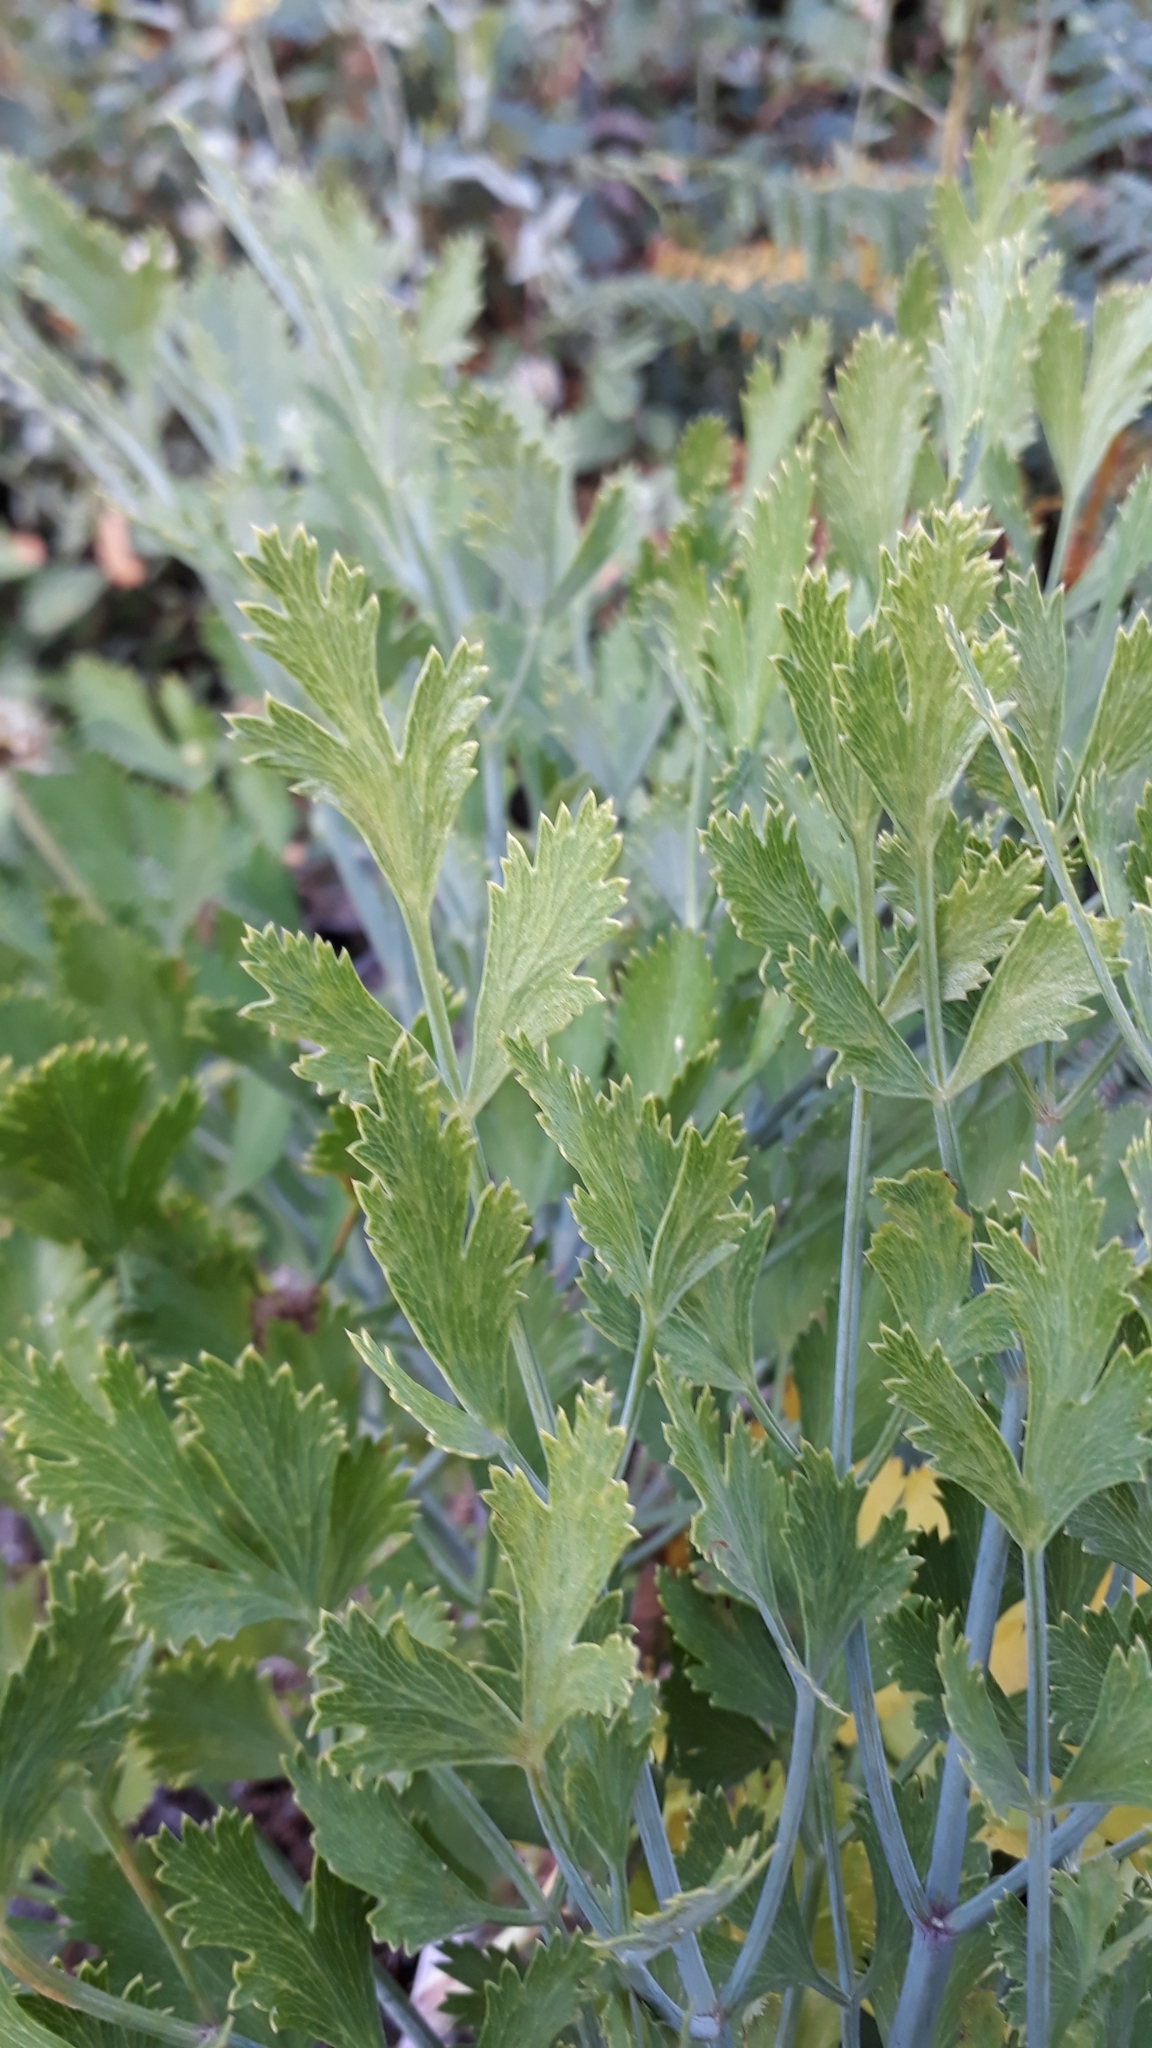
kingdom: Plantae
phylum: Tracheophyta
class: Magnoliopsida
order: Apiales
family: Apiaceae
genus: Notobubon
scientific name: Notobubon galbanum
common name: Blisterbush
